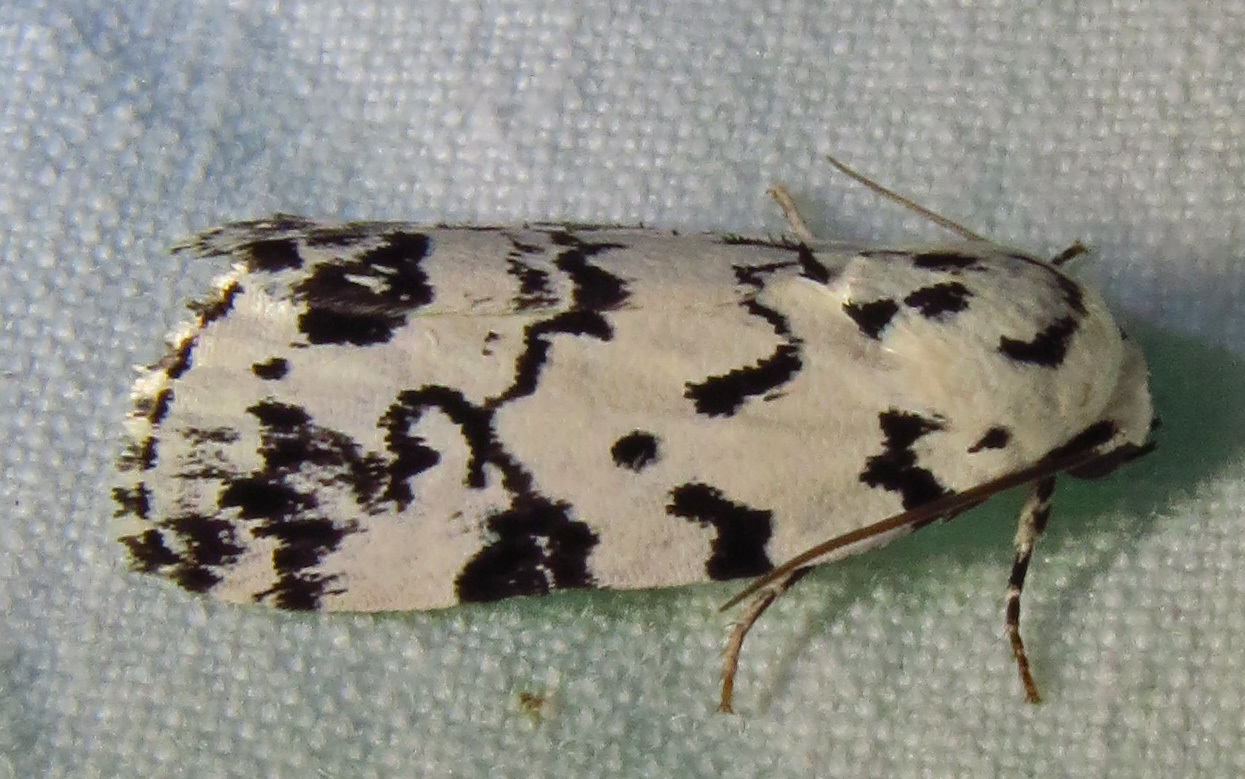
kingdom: Animalia
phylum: Arthropoda
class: Insecta
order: Lepidoptera
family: Noctuidae
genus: Polygrammate
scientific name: Polygrammate hebraeicum
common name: Hebrew moth
